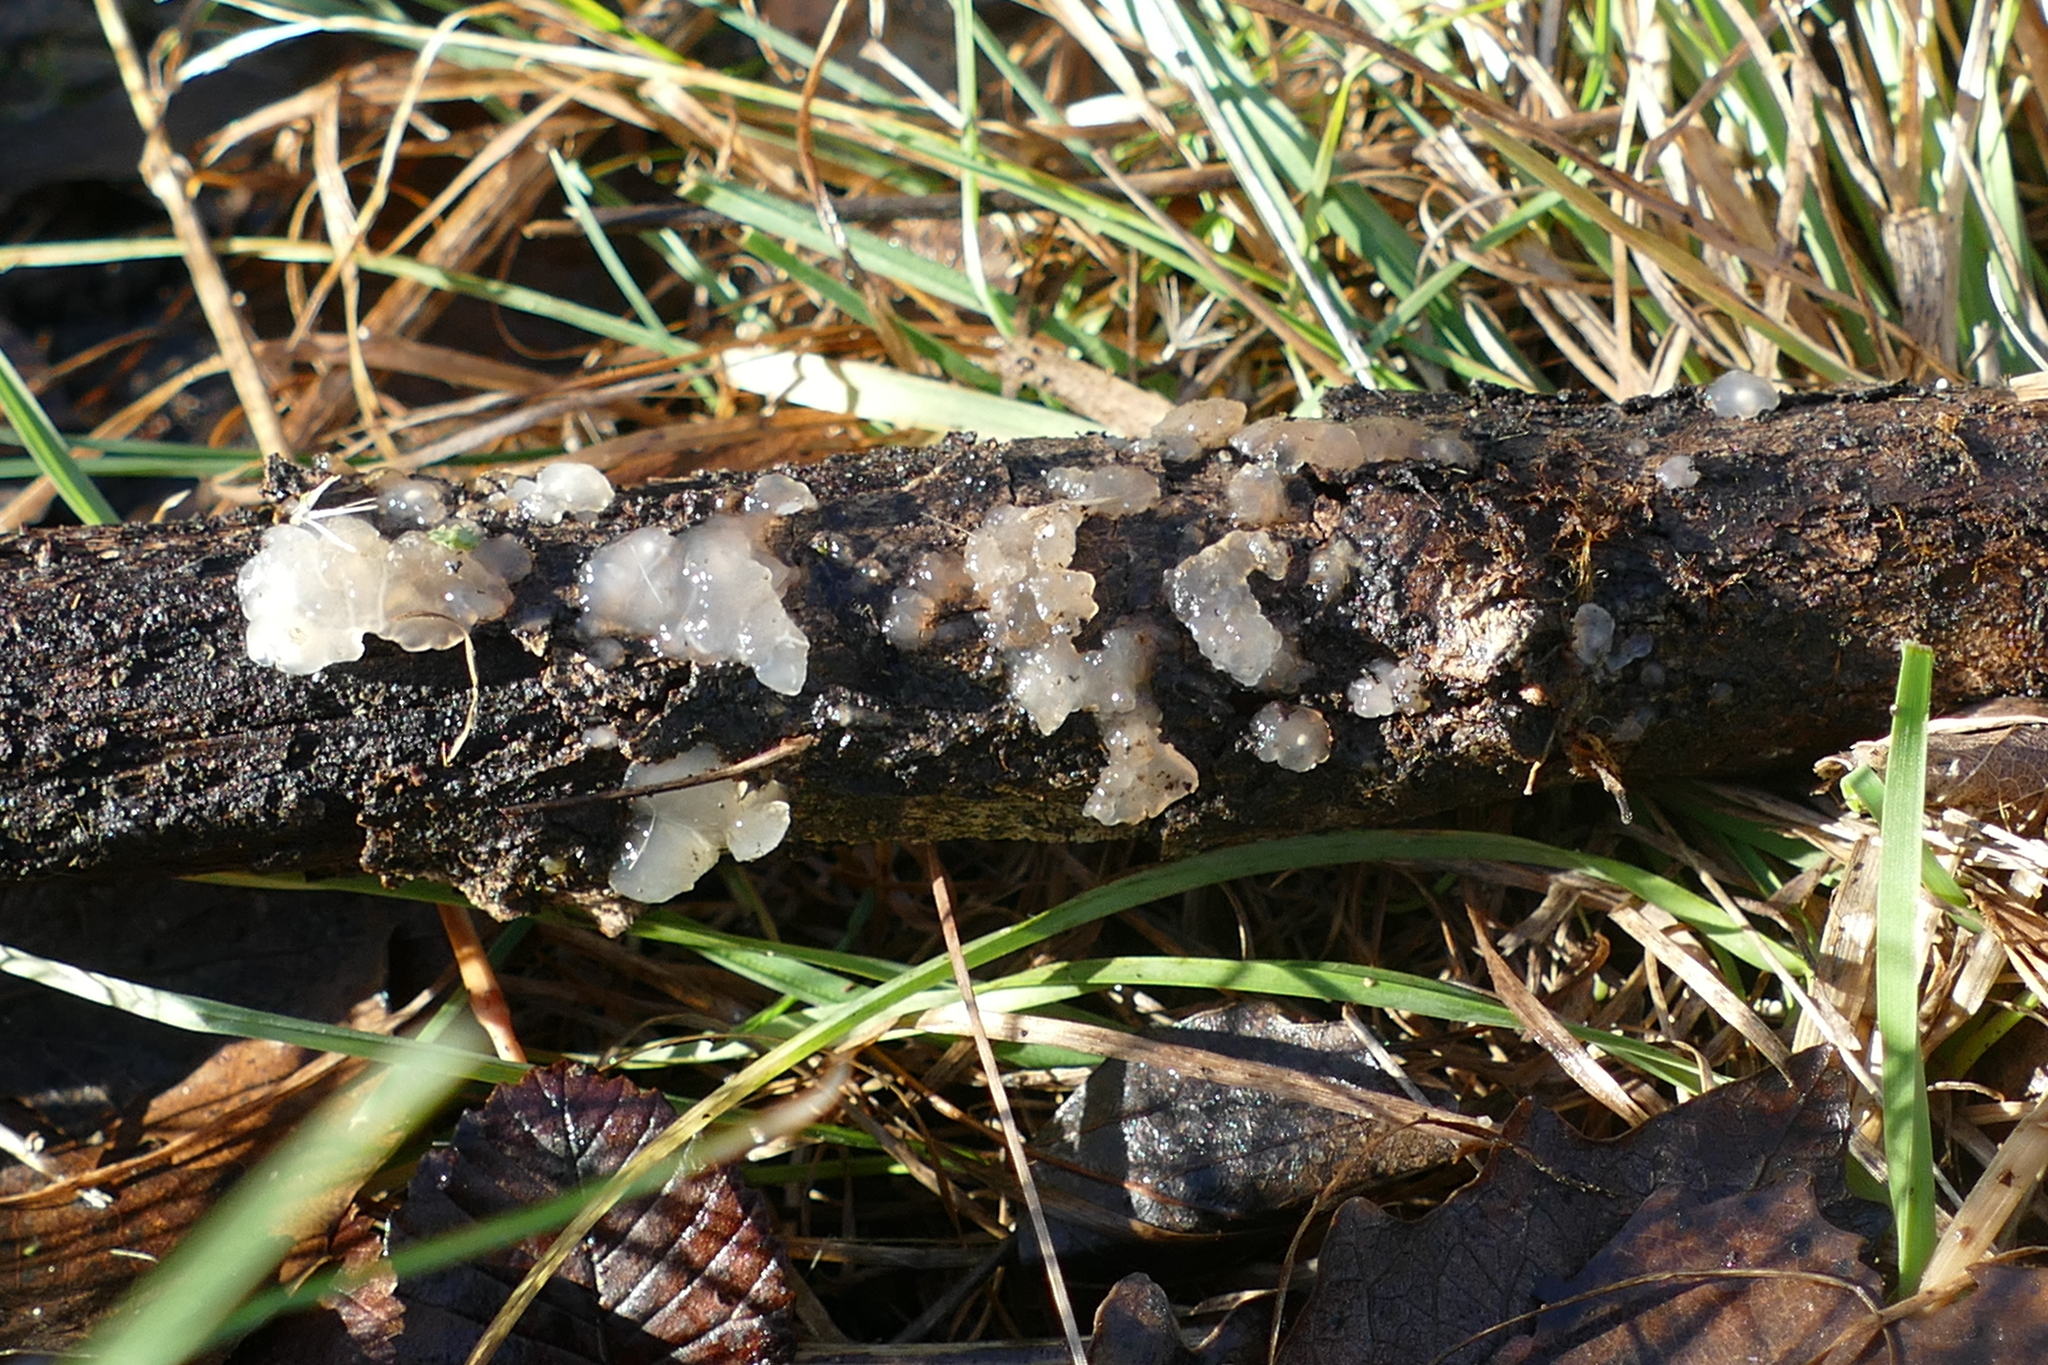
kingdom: Fungi
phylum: Basidiomycota
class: Agaricomycetes
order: Auriculariales
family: Hyaloriaceae
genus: Myxarium
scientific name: Myxarium nucleatum
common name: Crystal brain fungus
